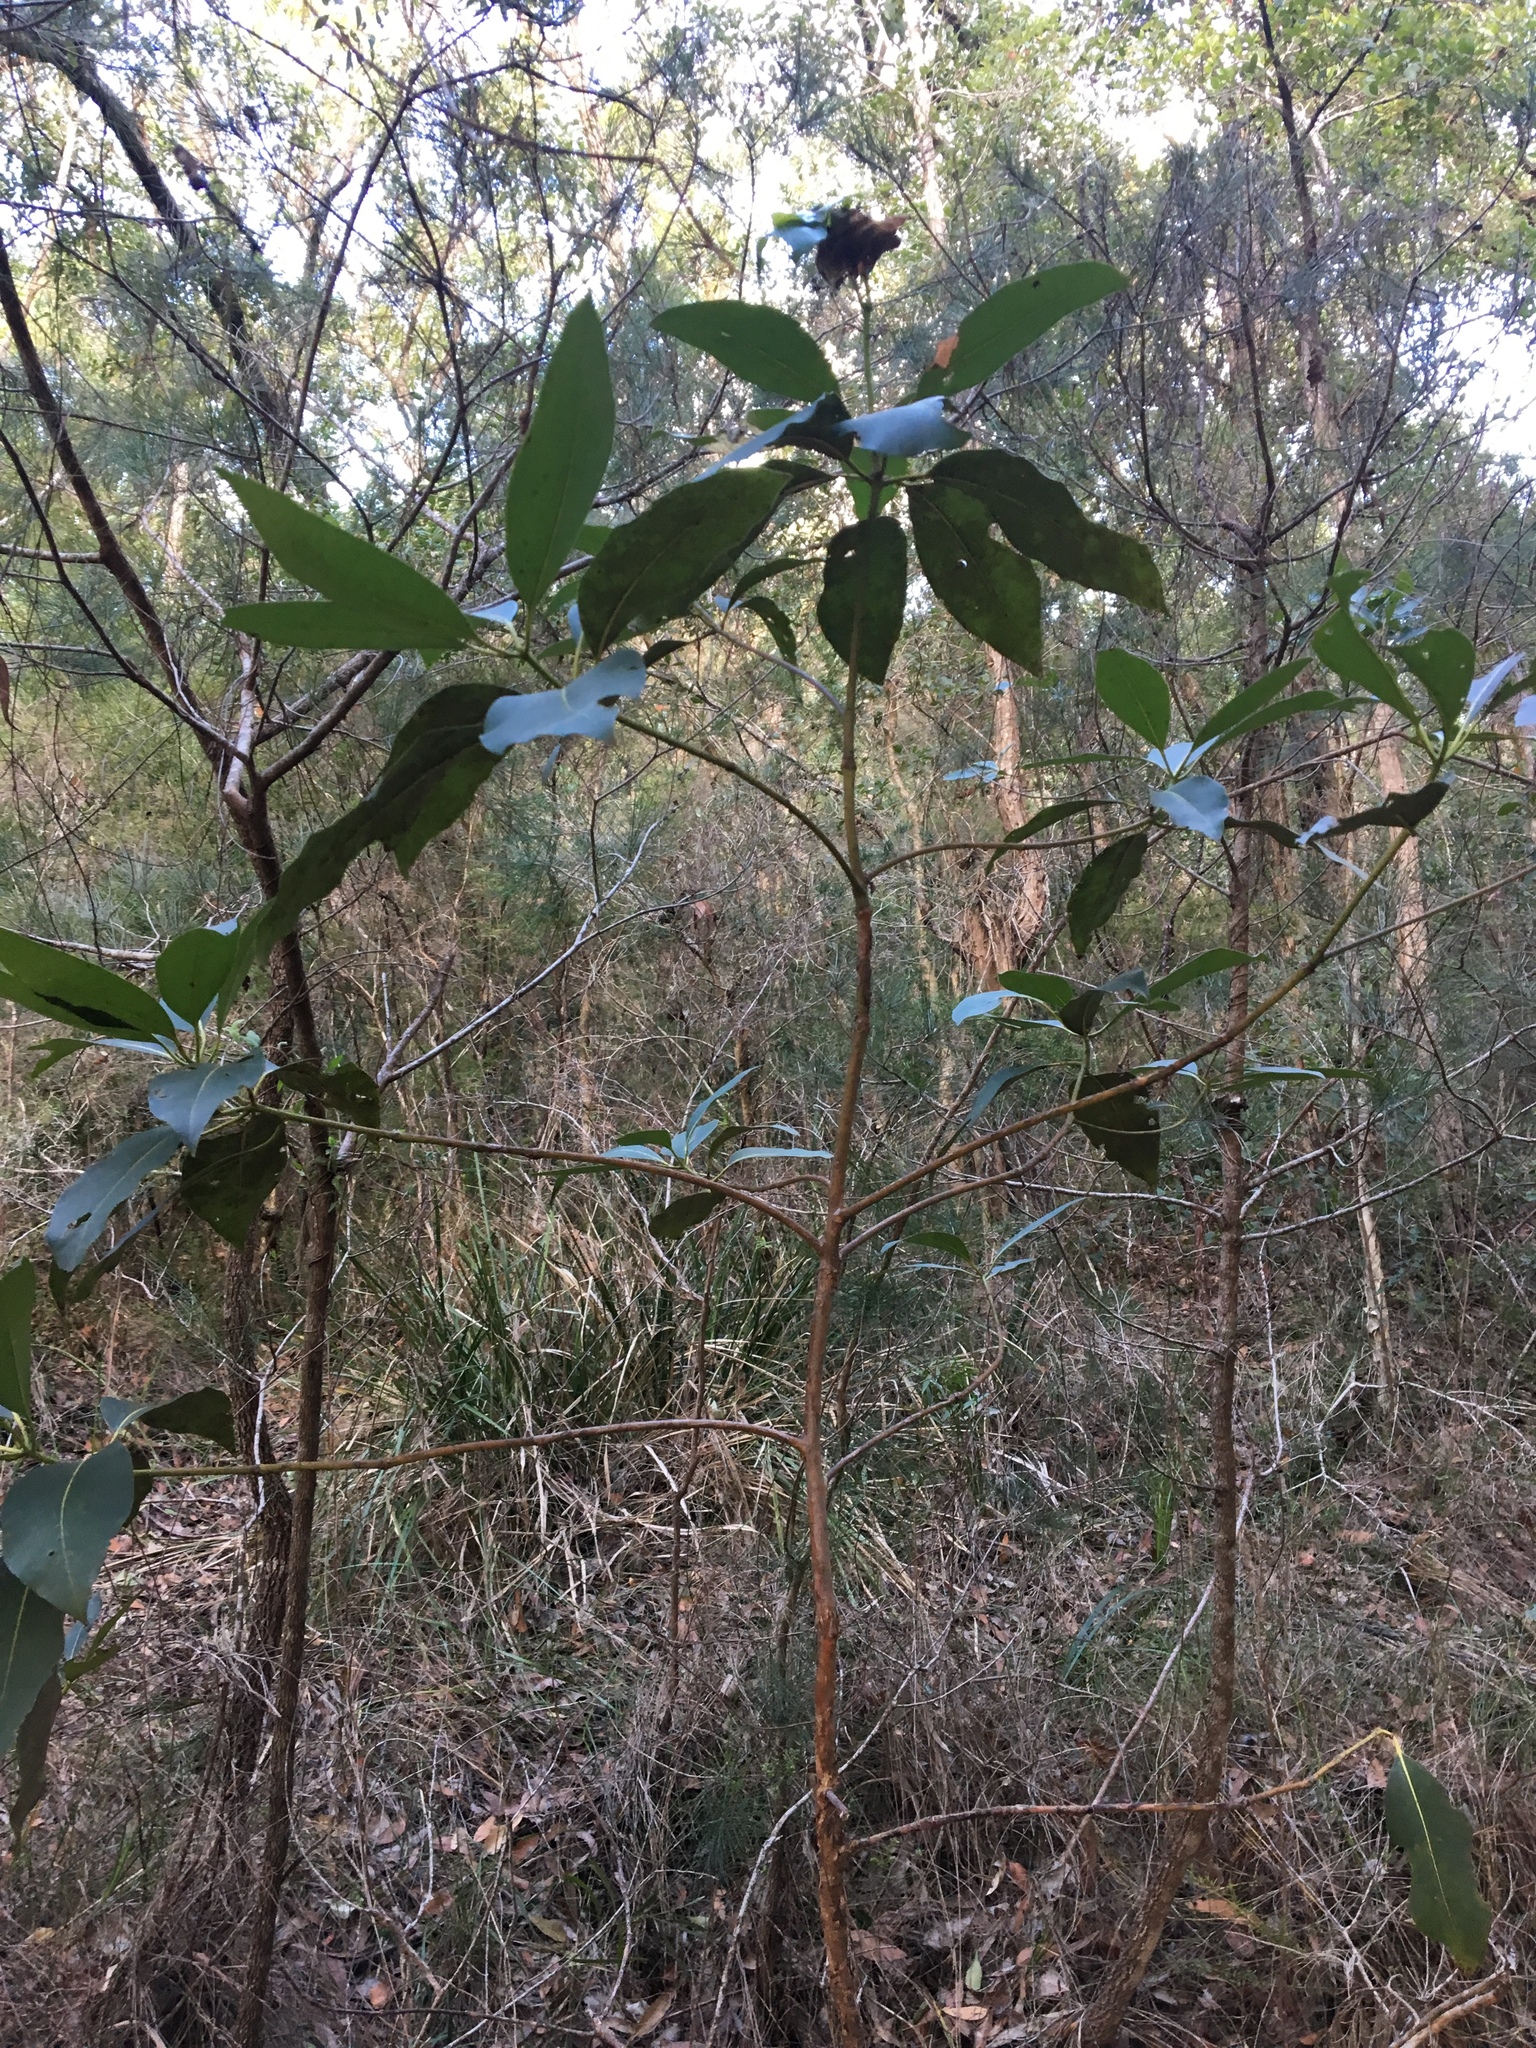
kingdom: Plantae
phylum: Tracheophyta
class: Magnoliopsida
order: Myrtales
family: Myrtaceae
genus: Lophostemon
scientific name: Lophostemon confertus
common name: Brisbane box
